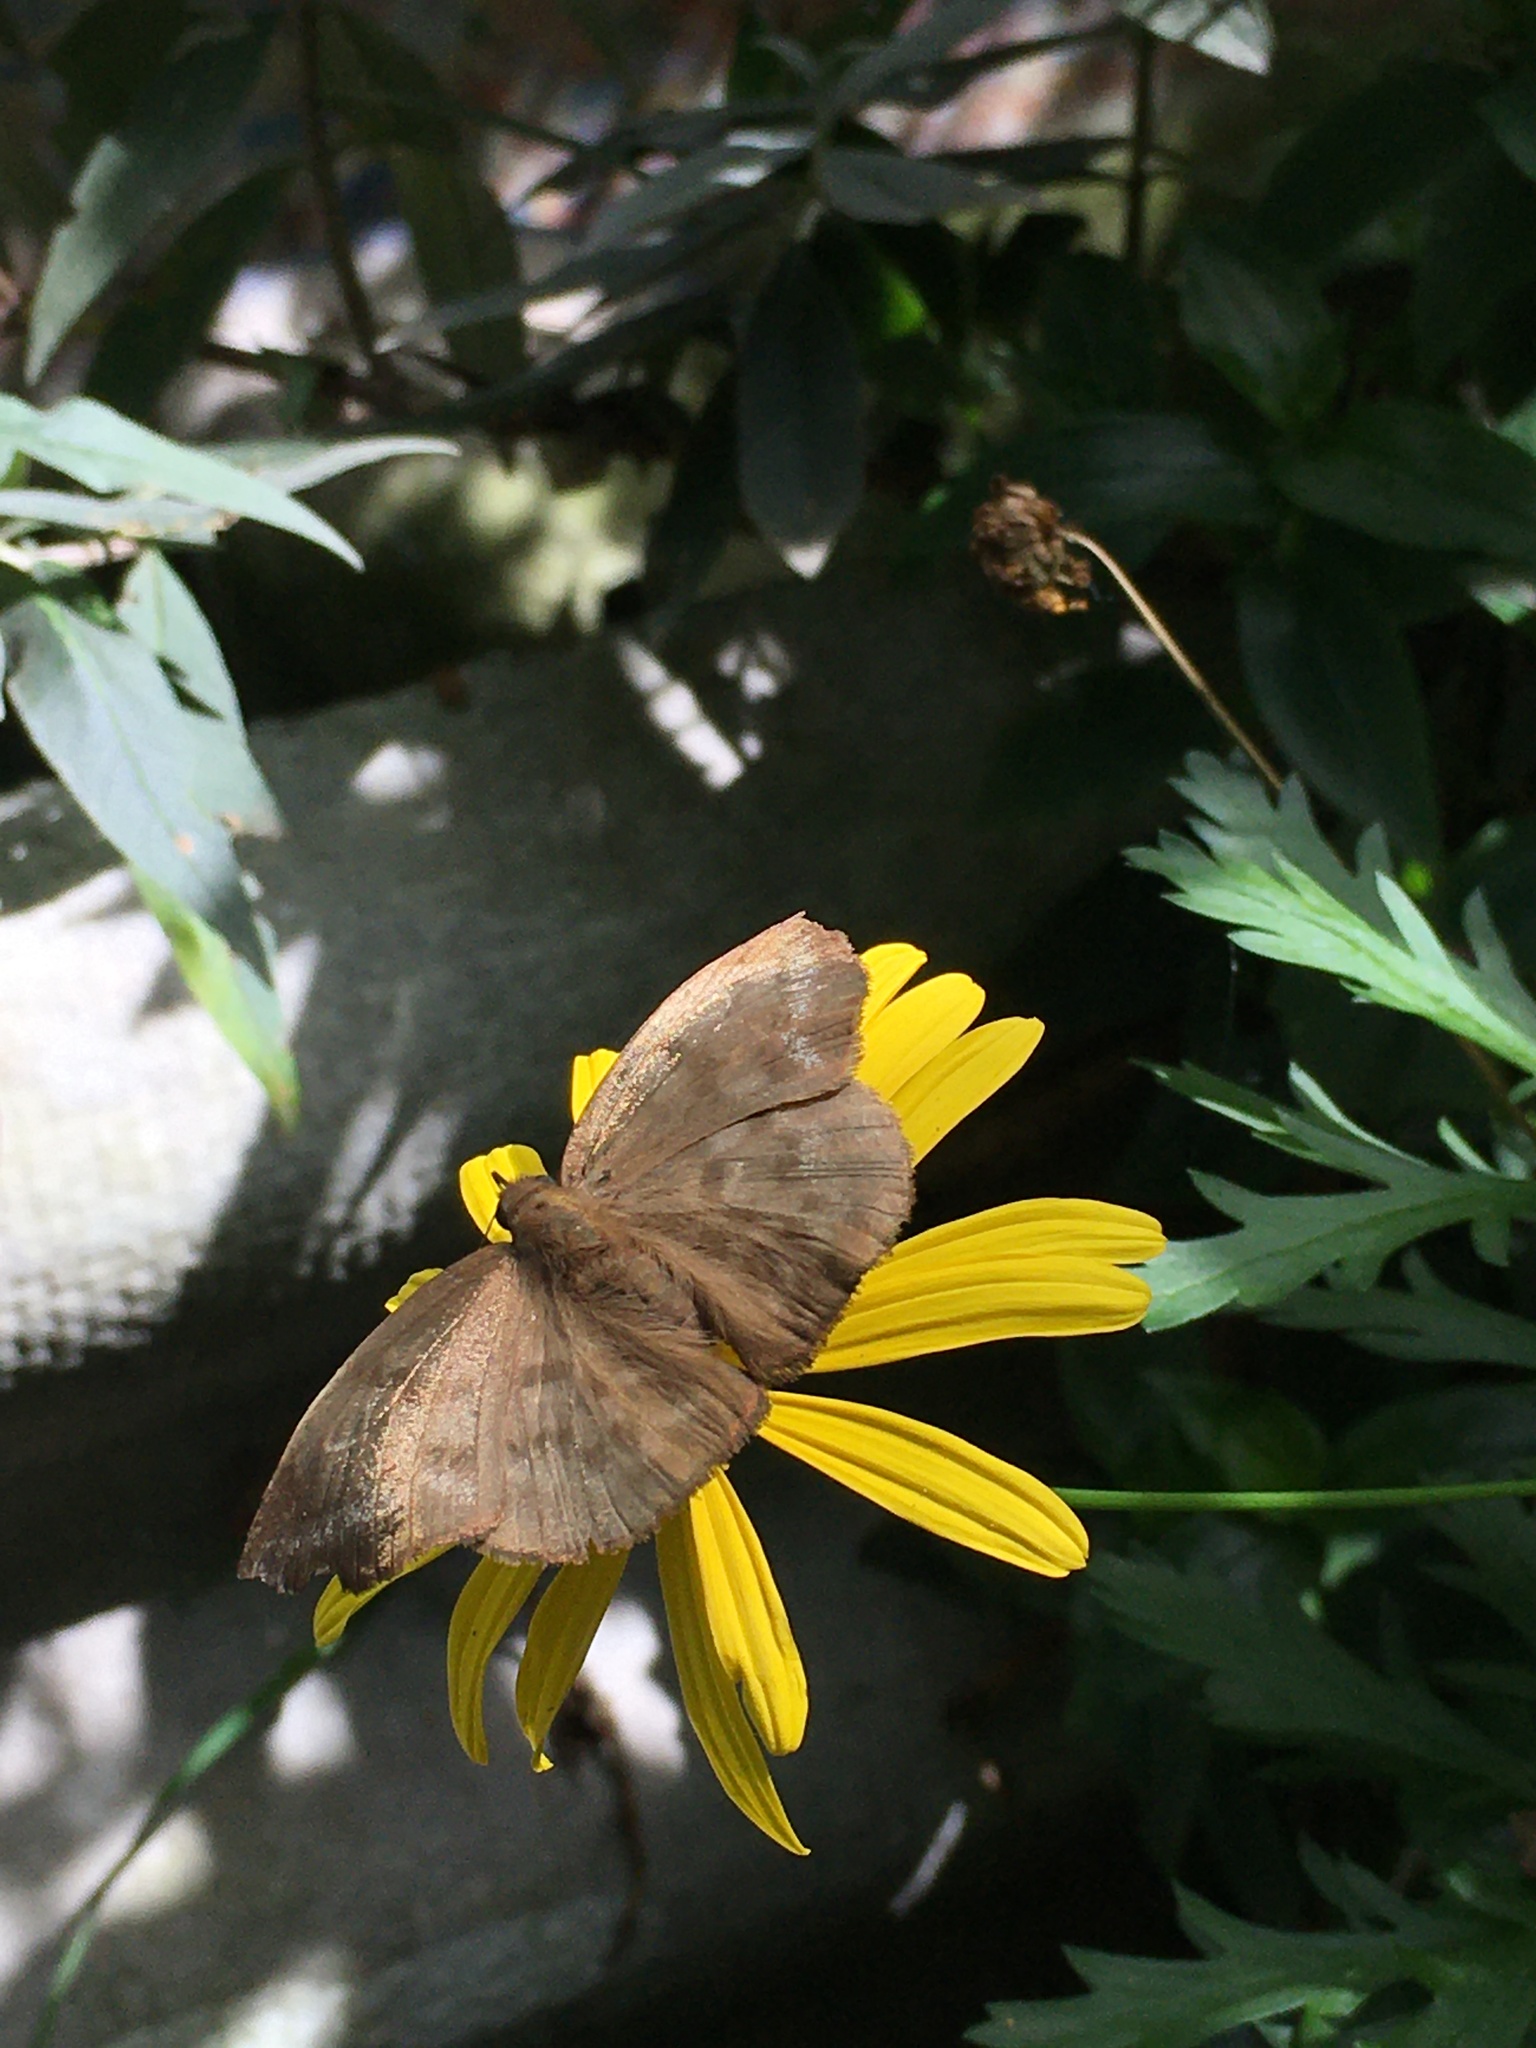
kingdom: Animalia
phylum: Arthropoda
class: Insecta
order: Lepidoptera
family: Hesperiidae
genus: Achlyodes
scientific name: Achlyodes pallida
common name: Pale sicklewing
